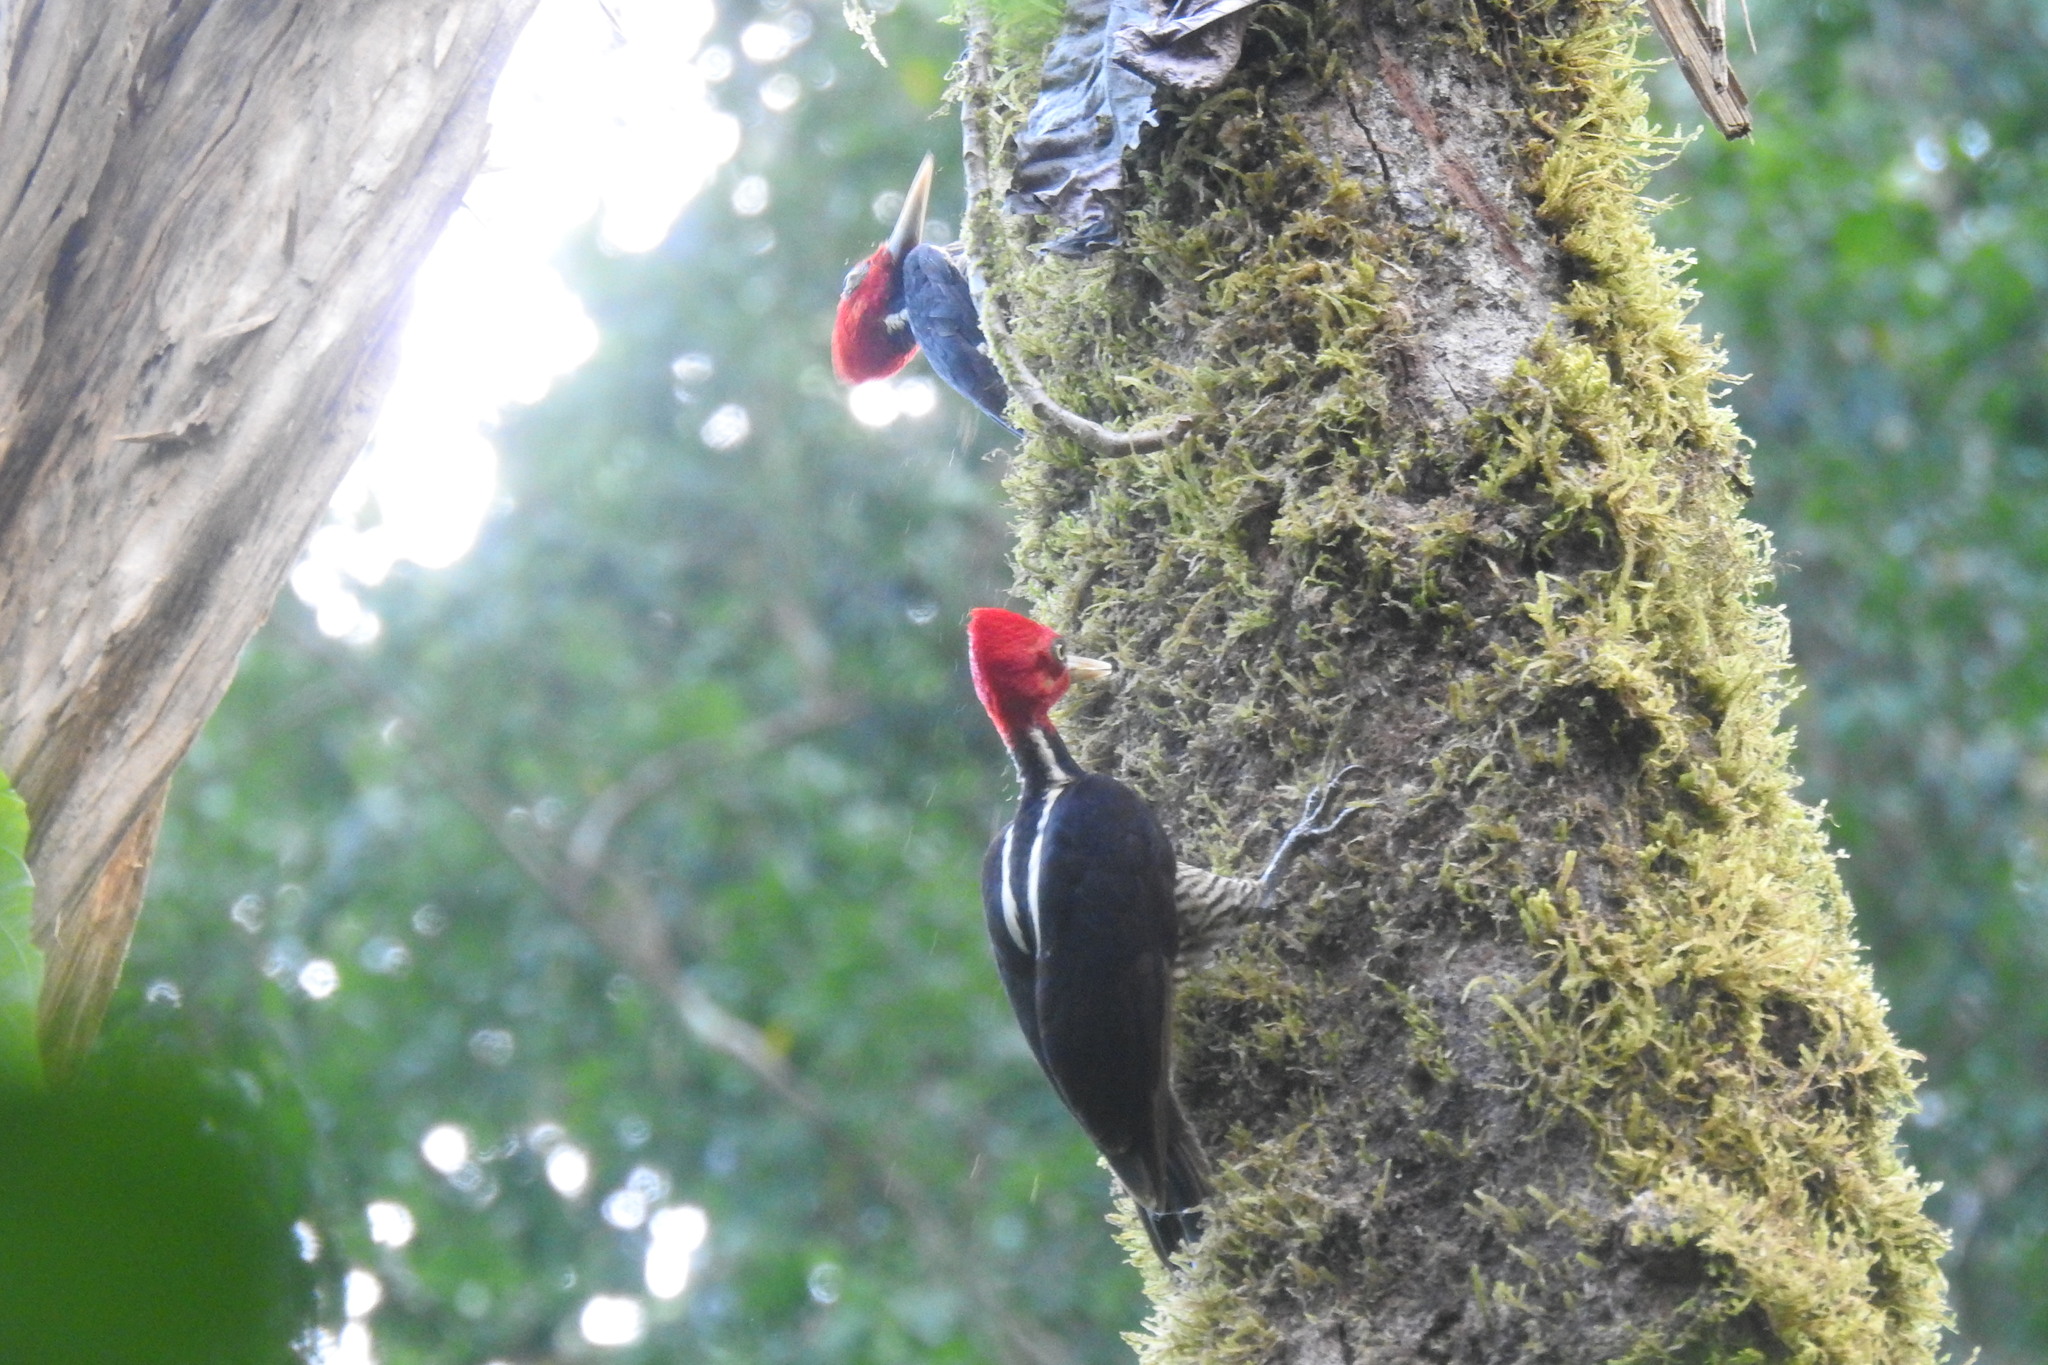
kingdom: Animalia
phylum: Chordata
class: Aves
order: Piciformes
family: Picidae
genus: Campephilus
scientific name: Campephilus guatemalensis
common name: Pale-billed woodpecker
